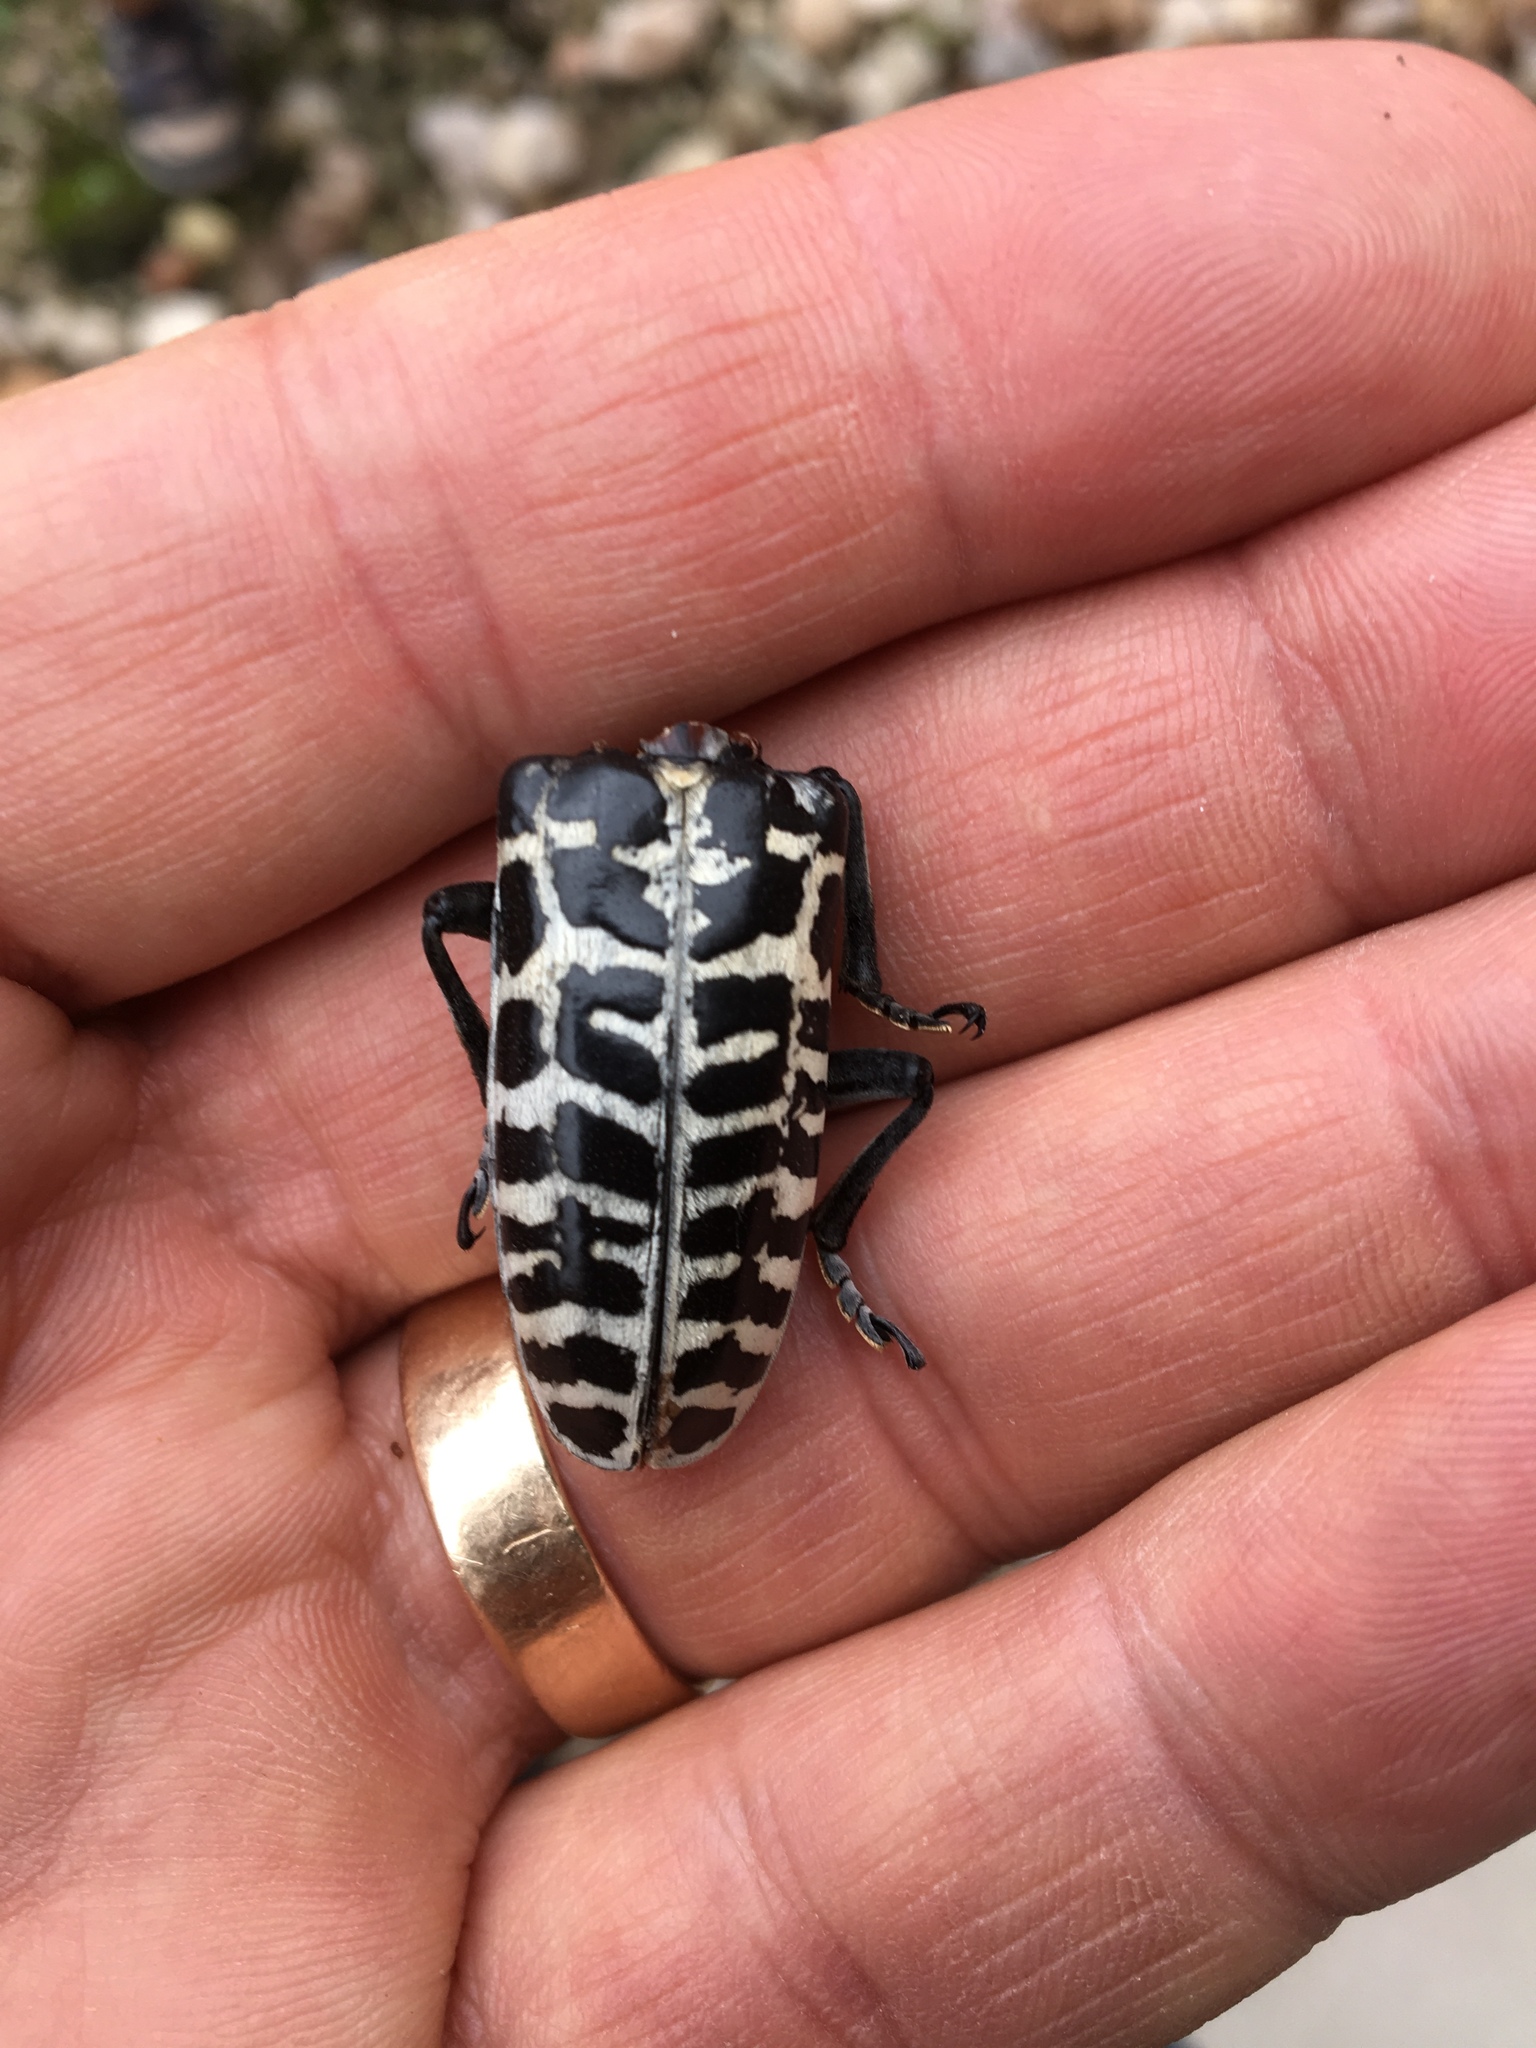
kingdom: Animalia
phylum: Arthropoda
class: Insecta
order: Coleoptera
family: Cerambycidae
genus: Plectrodera
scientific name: Plectrodera scalator
